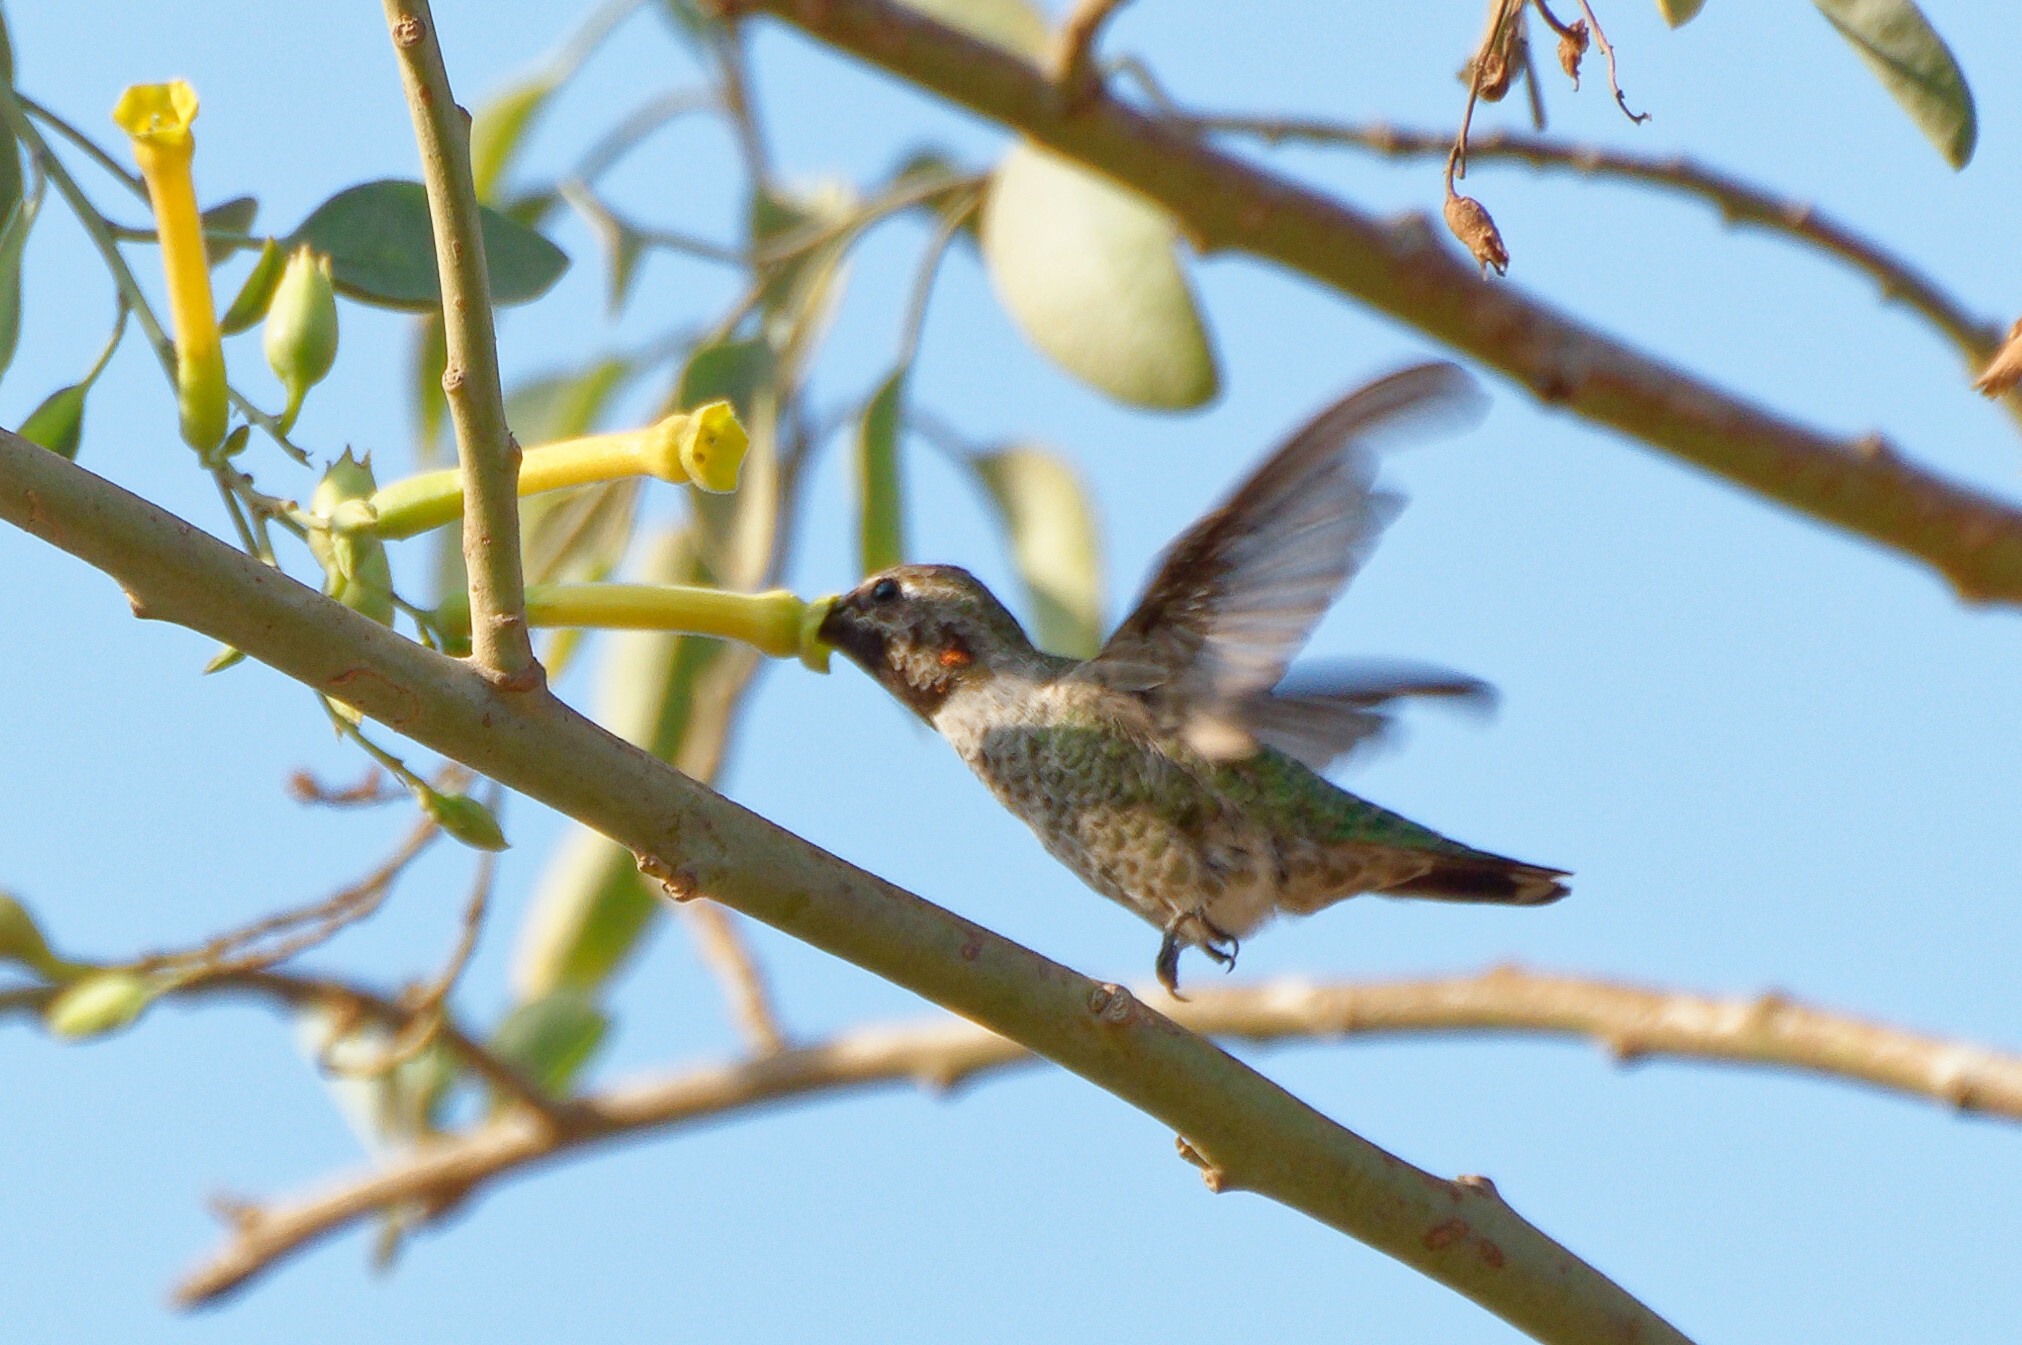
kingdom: Animalia
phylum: Chordata
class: Aves
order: Apodiformes
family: Trochilidae
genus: Calypte
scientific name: Calypte anna
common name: Anna's hummingbird
